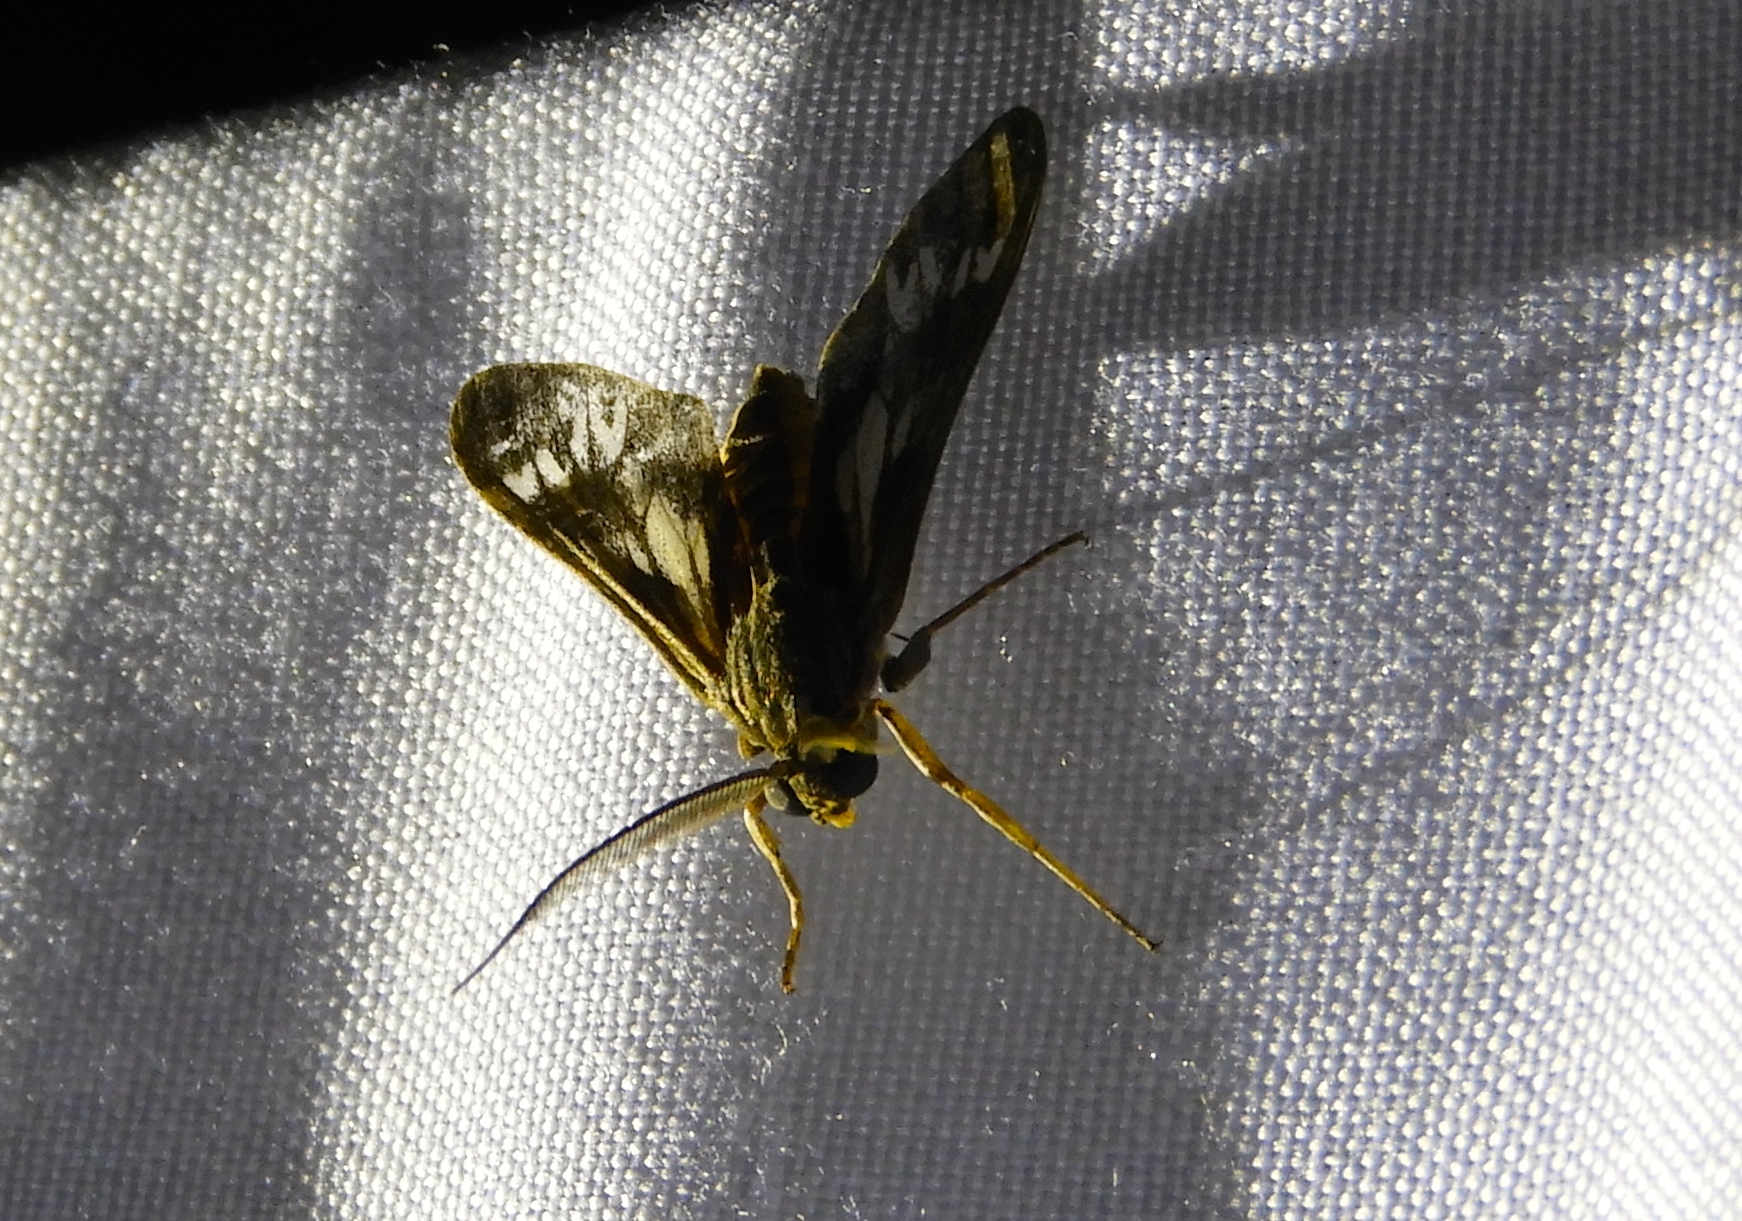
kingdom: Animalia
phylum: Arthropoda
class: Insecta
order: Lepidoptera
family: Erebidae
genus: Psilopleura
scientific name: Psilopleura
